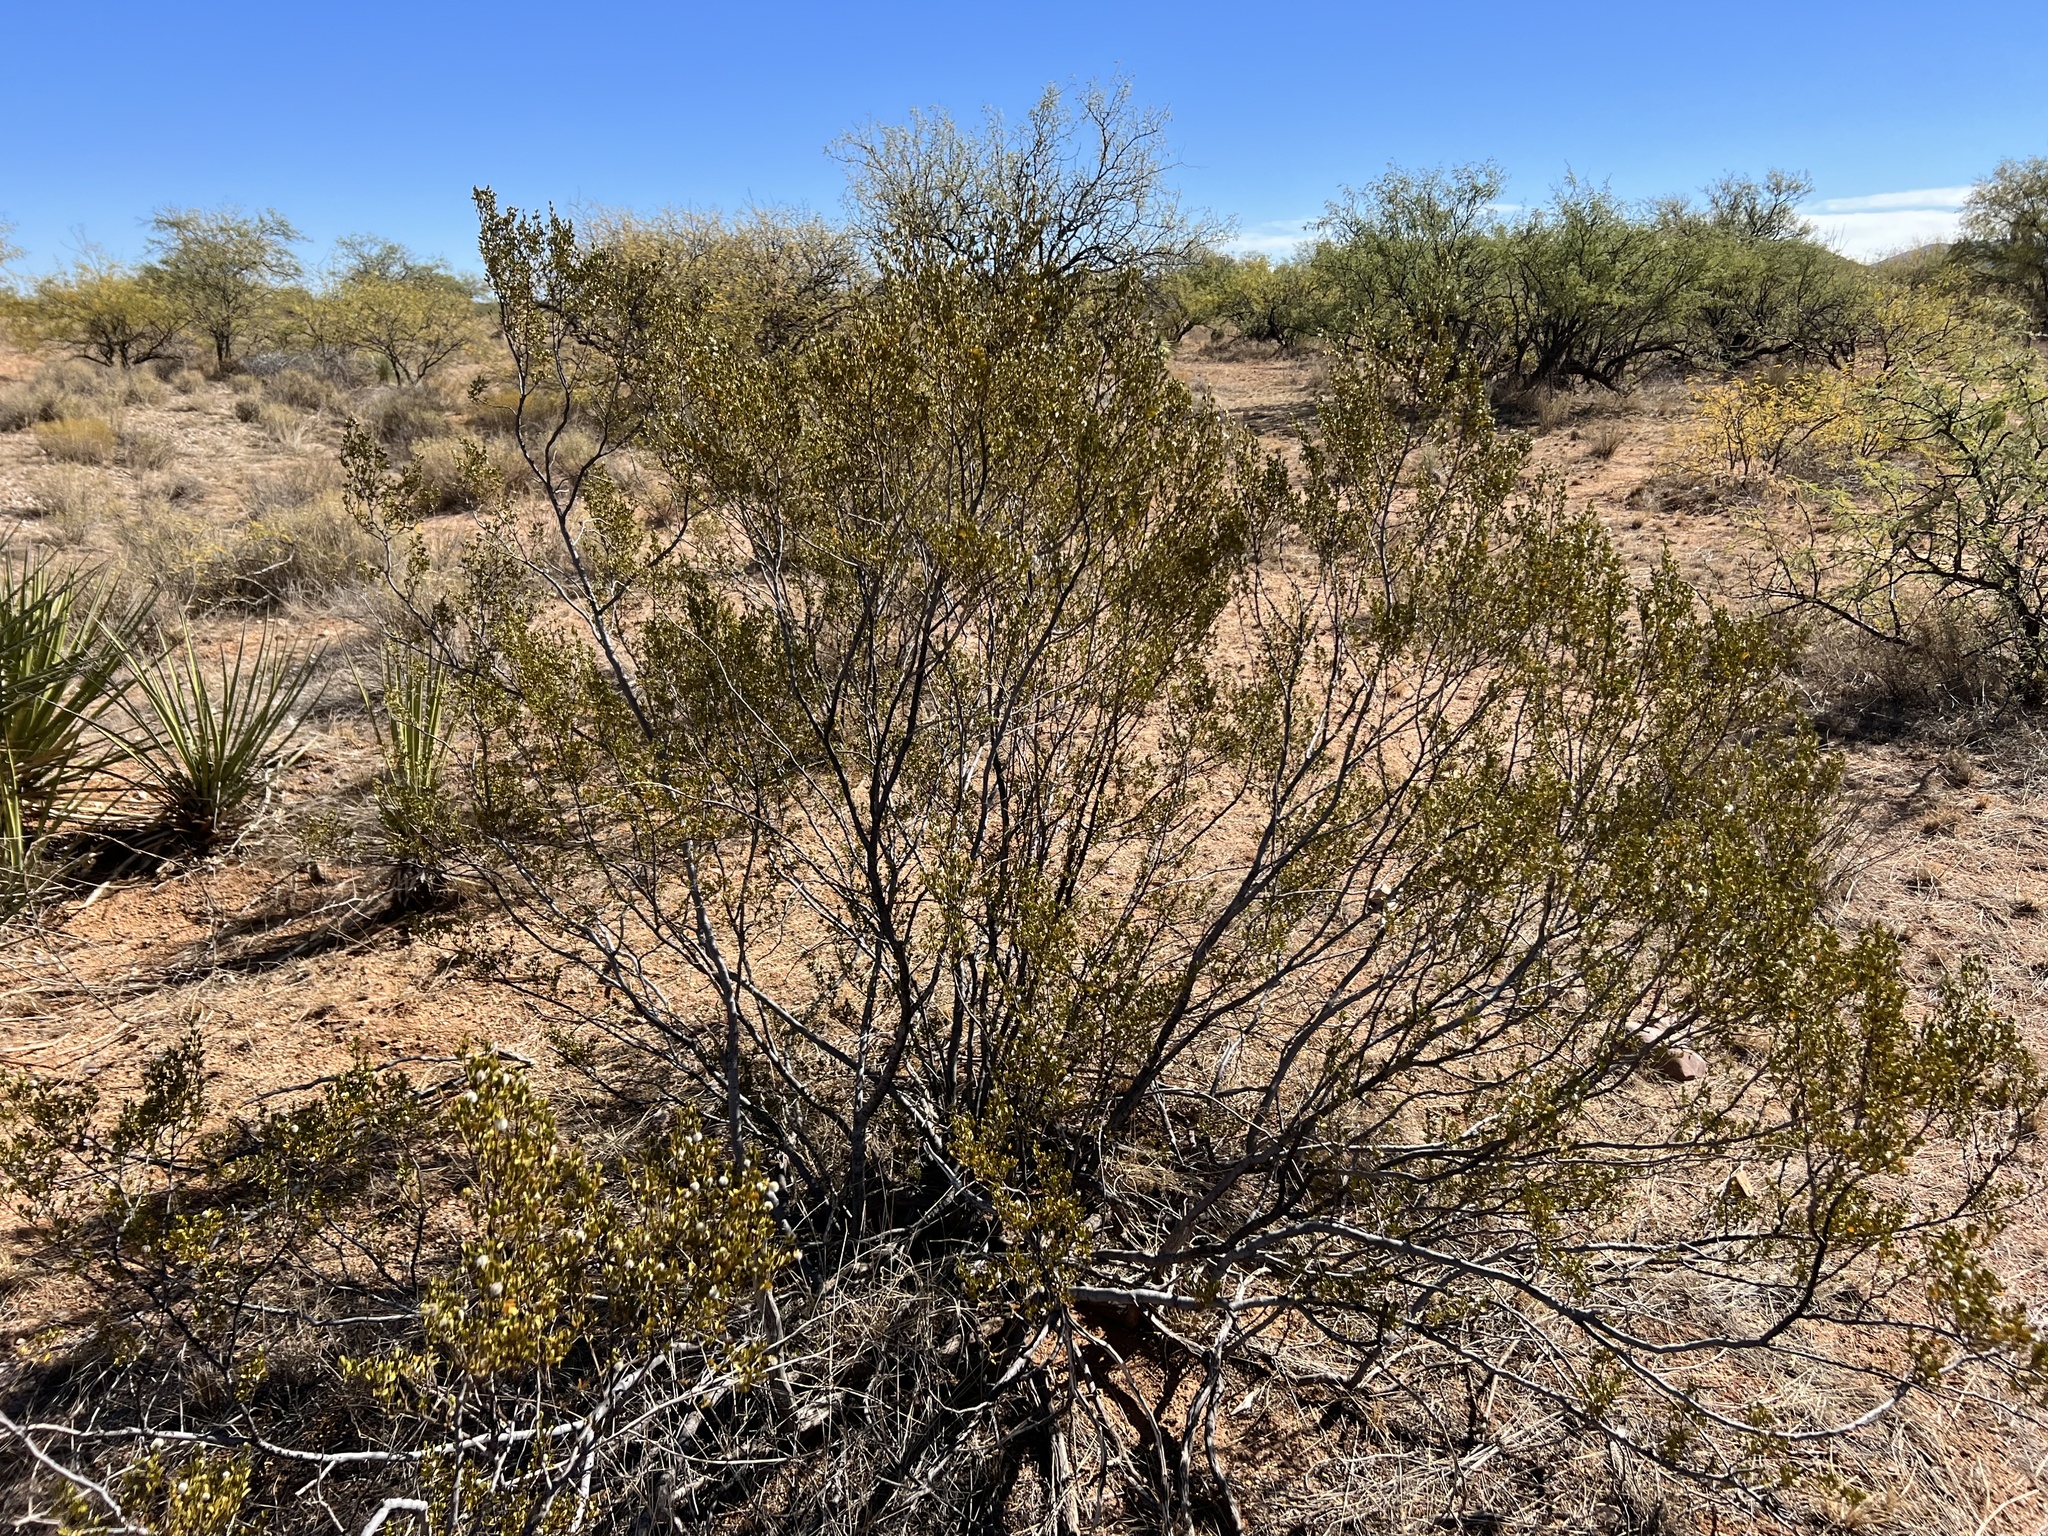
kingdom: Plantae
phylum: Tracheophyta
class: Magnoliopsida
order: Zygophyllales
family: Zygophyllaceae
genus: Larrea
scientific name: Larrea tridentata
